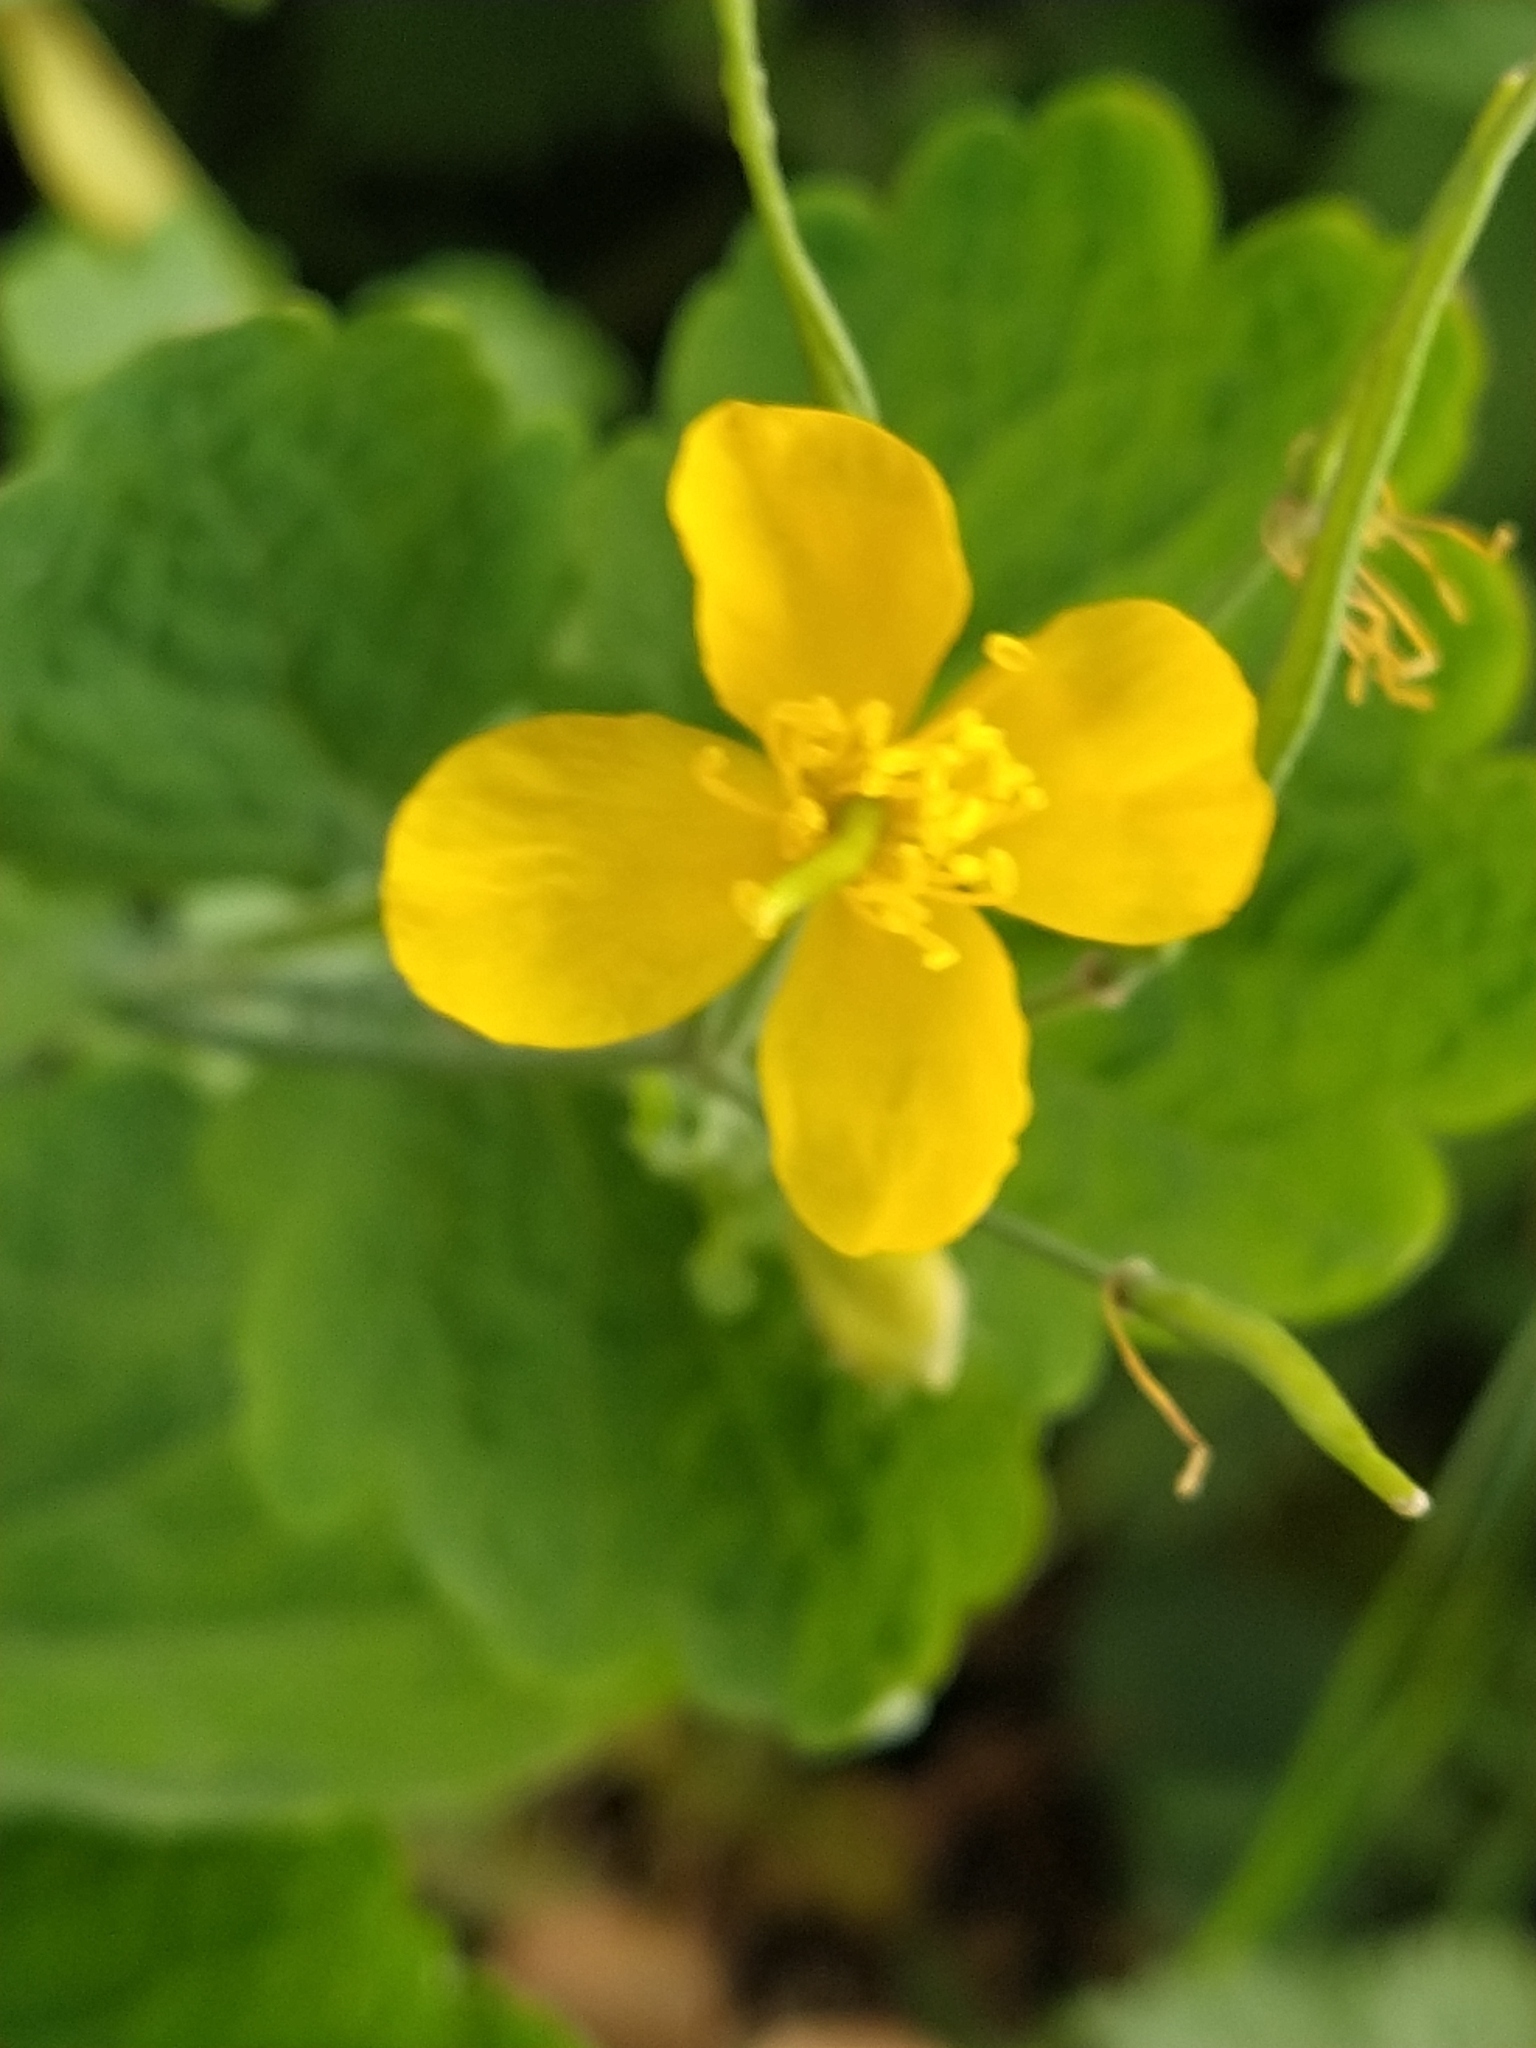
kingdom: Plantae
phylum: Tracheophyta
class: Magnoliopsida
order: Ranunculales
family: Papaveraceae
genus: Chelidonium
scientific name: Chelidonium majus
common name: Greater celandine
